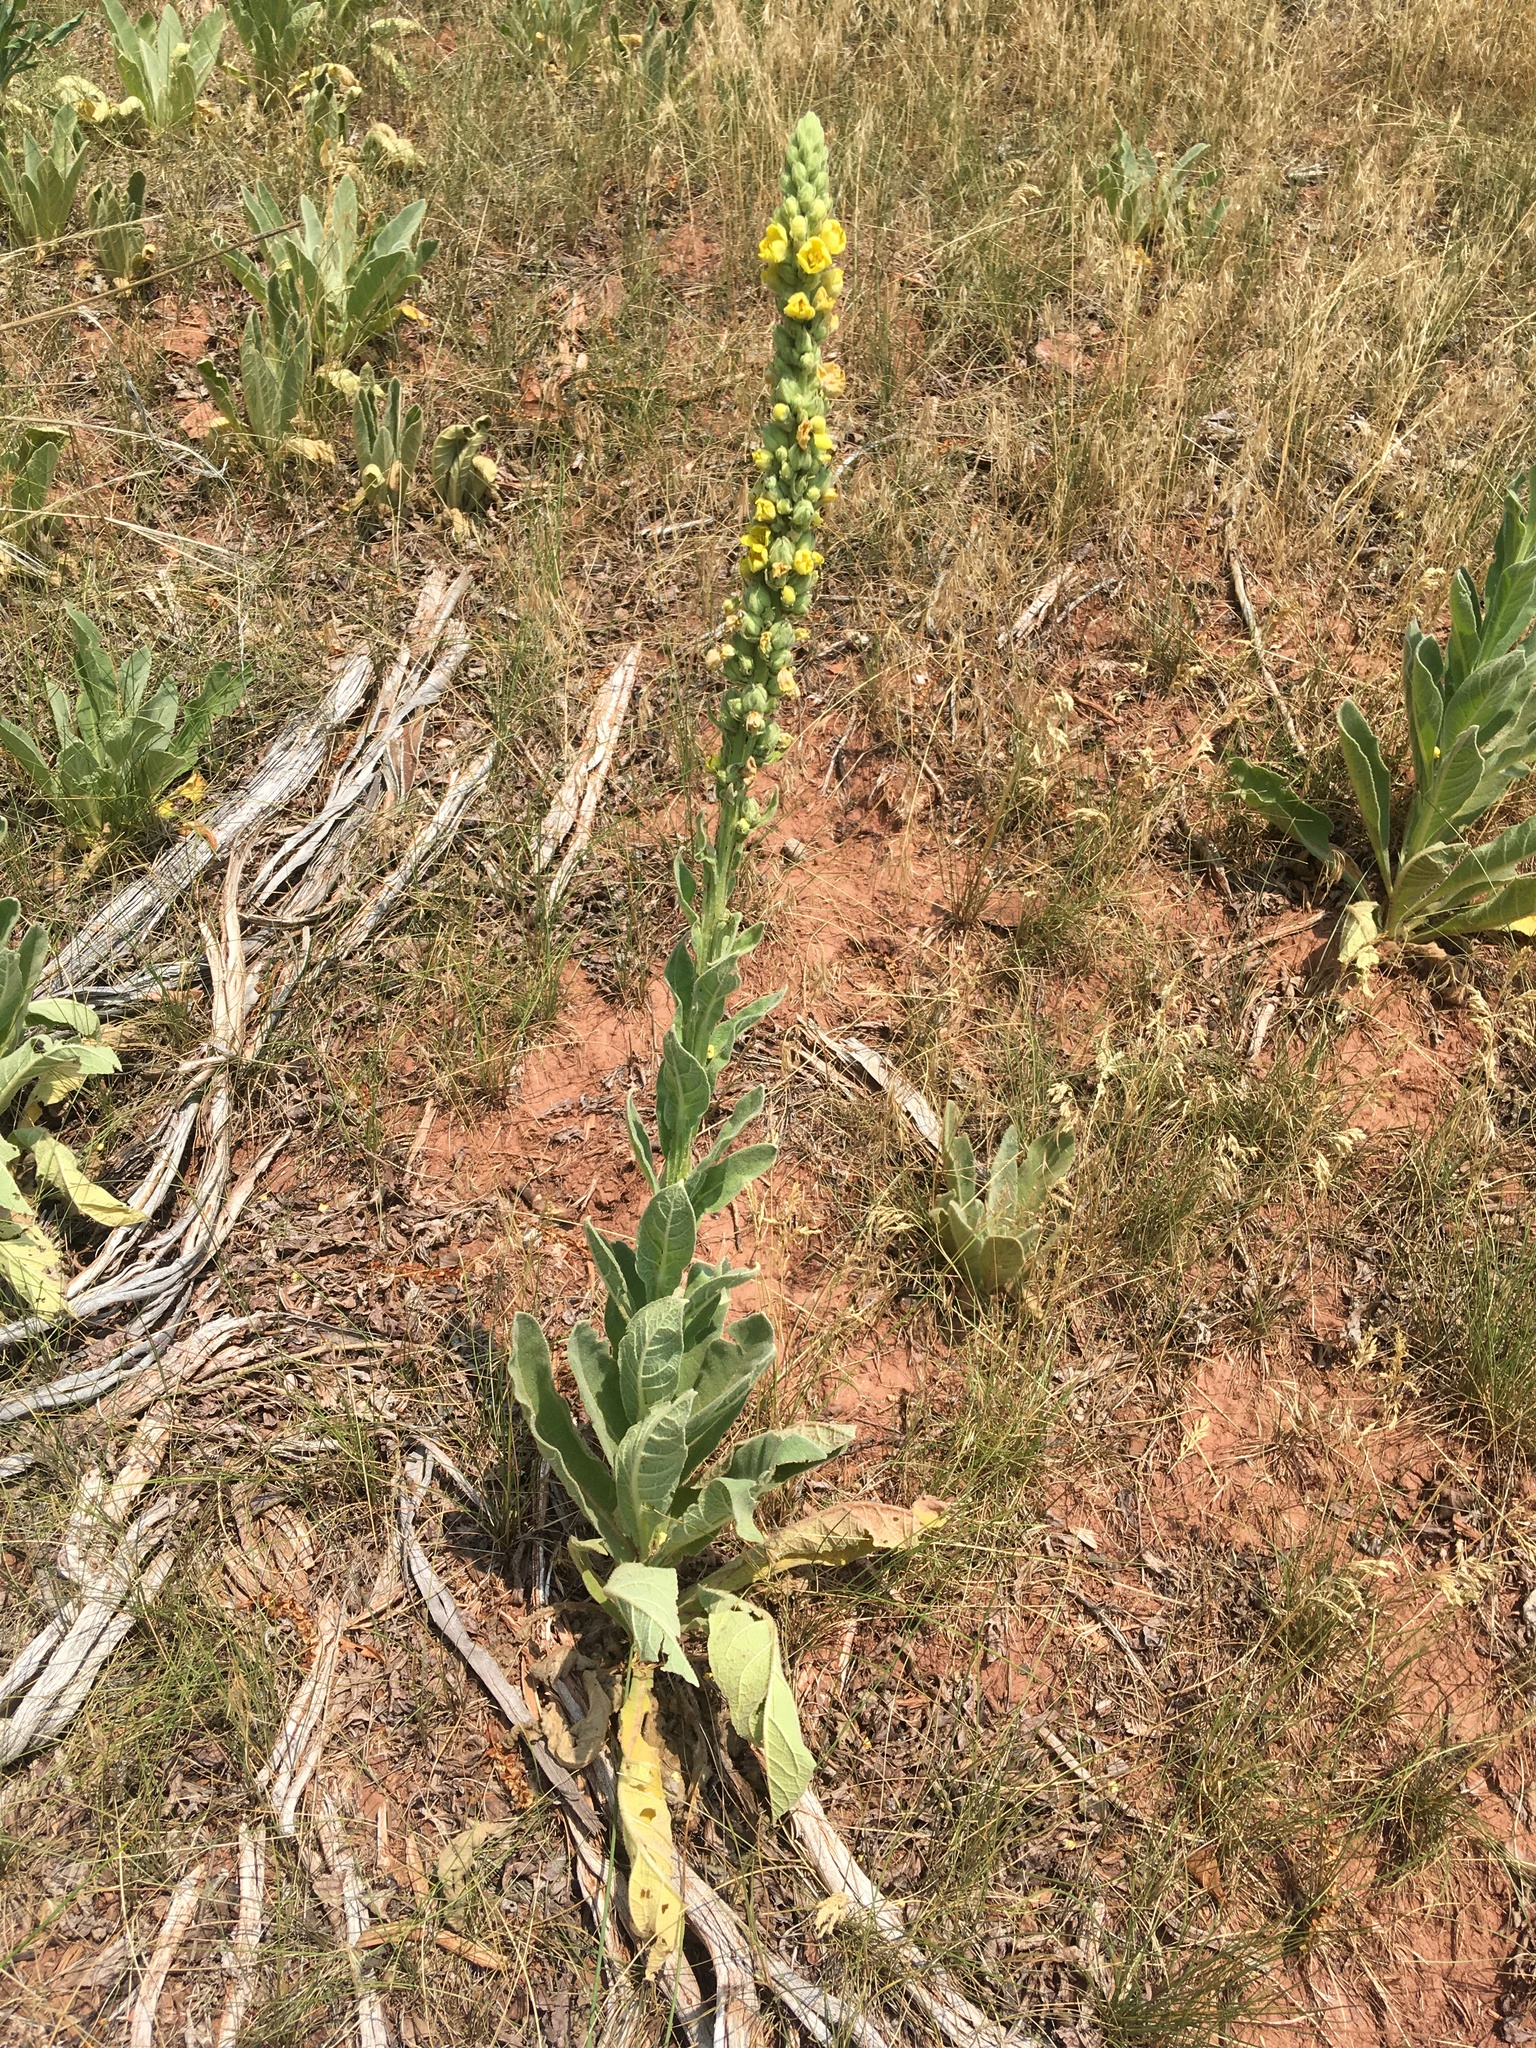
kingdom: Plantae
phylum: Tracheophyta
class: Magnoliopsida
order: Lamiales
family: Scrophulariaceae
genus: Verbascum
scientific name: Verbascum thapsus
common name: Common mullein
